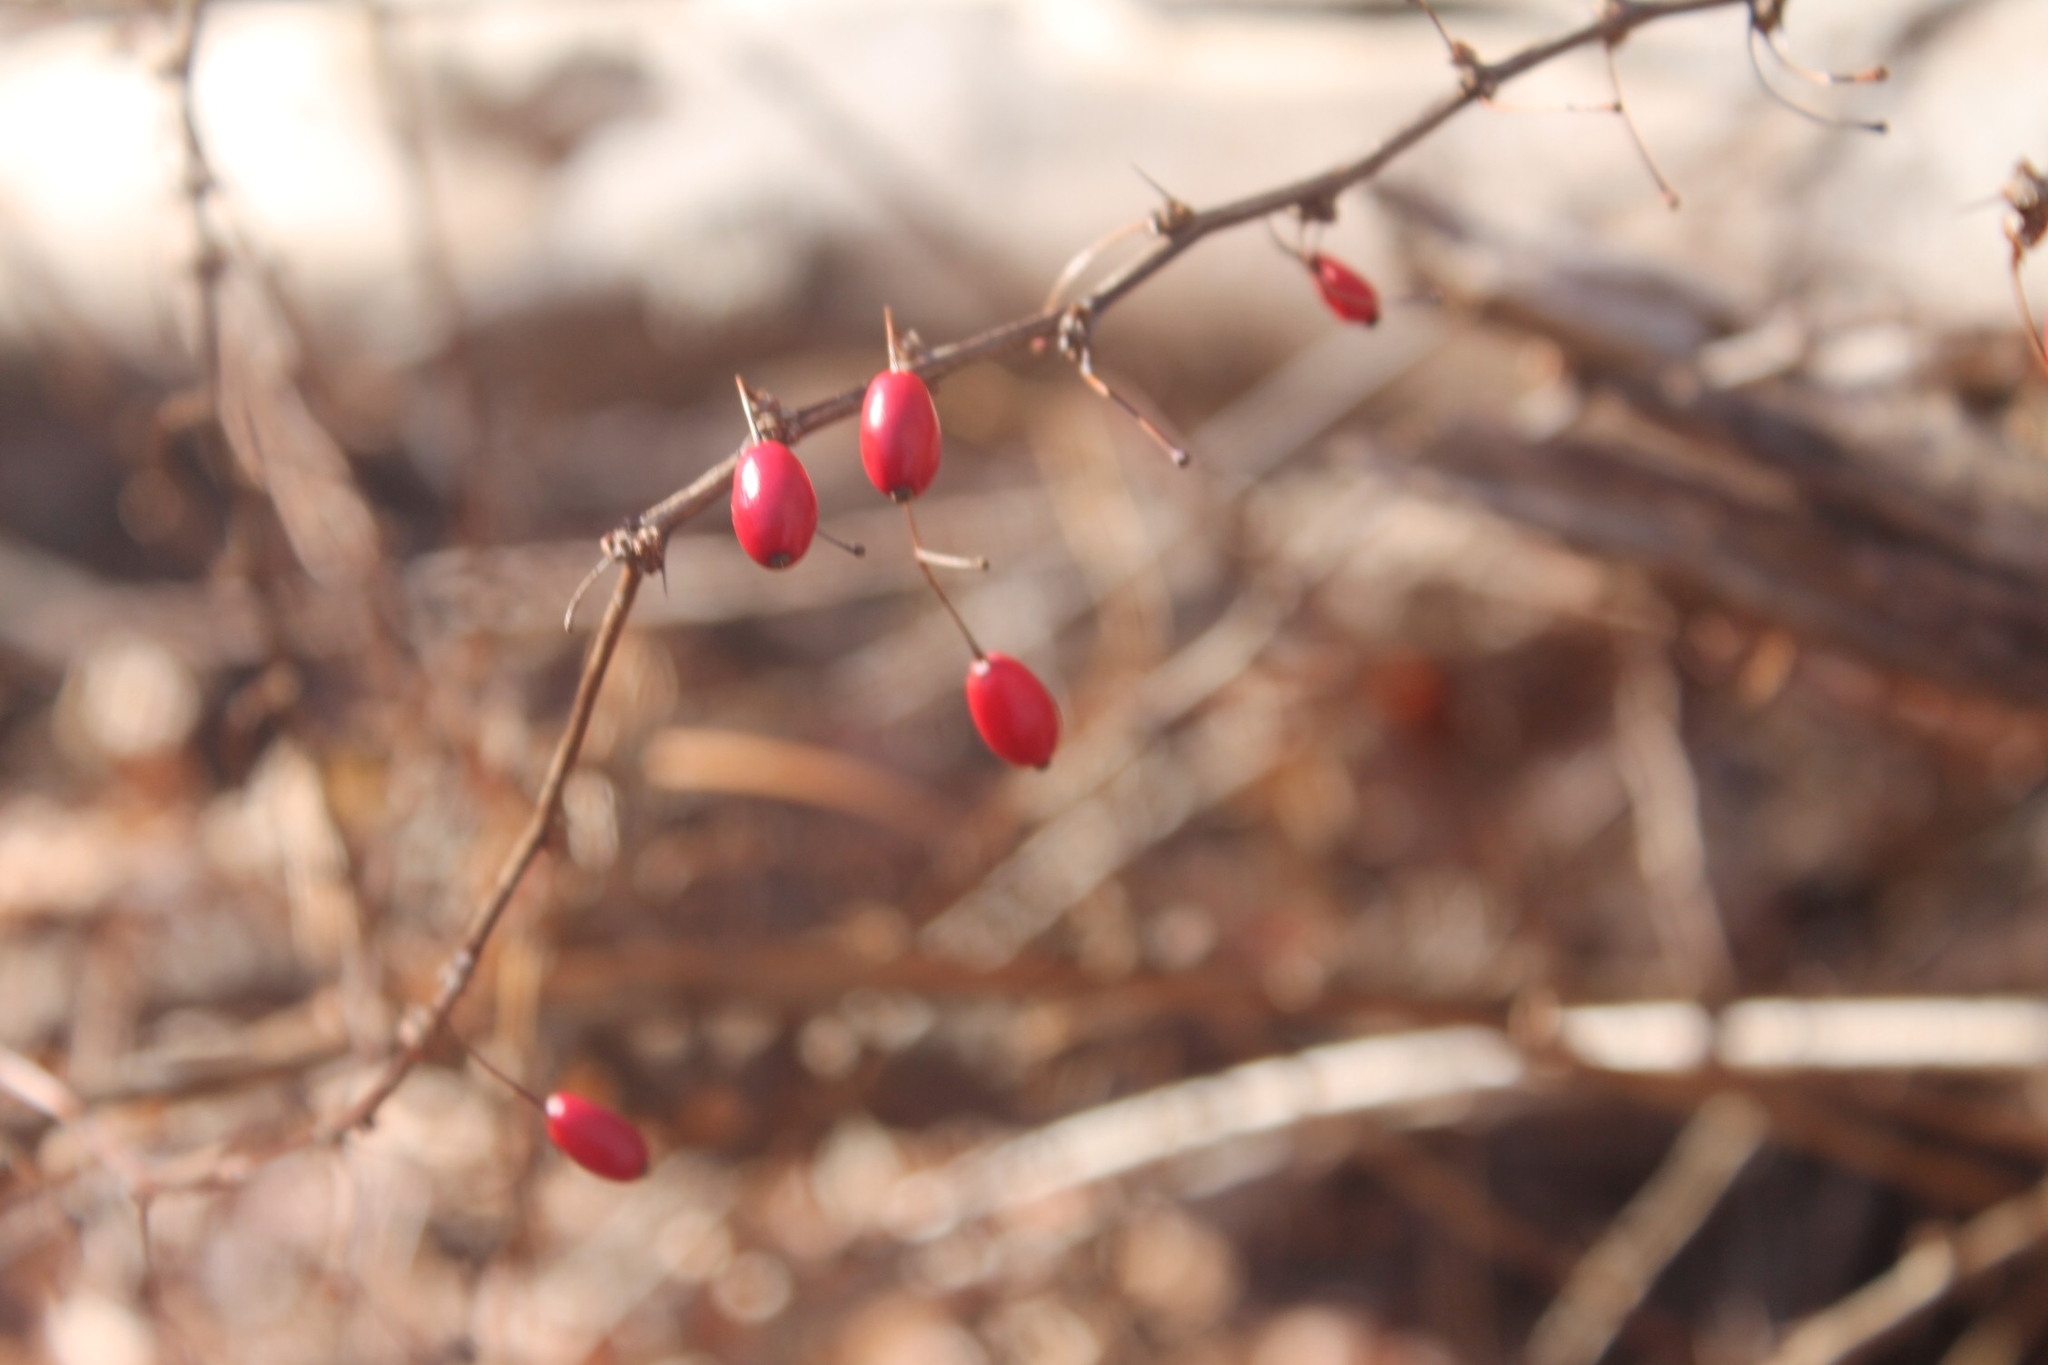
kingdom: Plantae
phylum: Tracheophyta
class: Magnoliopsida
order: Ranunculales
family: Berberidaceae
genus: Berberis
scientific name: Berberis thunbergii
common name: Japanese barberry
